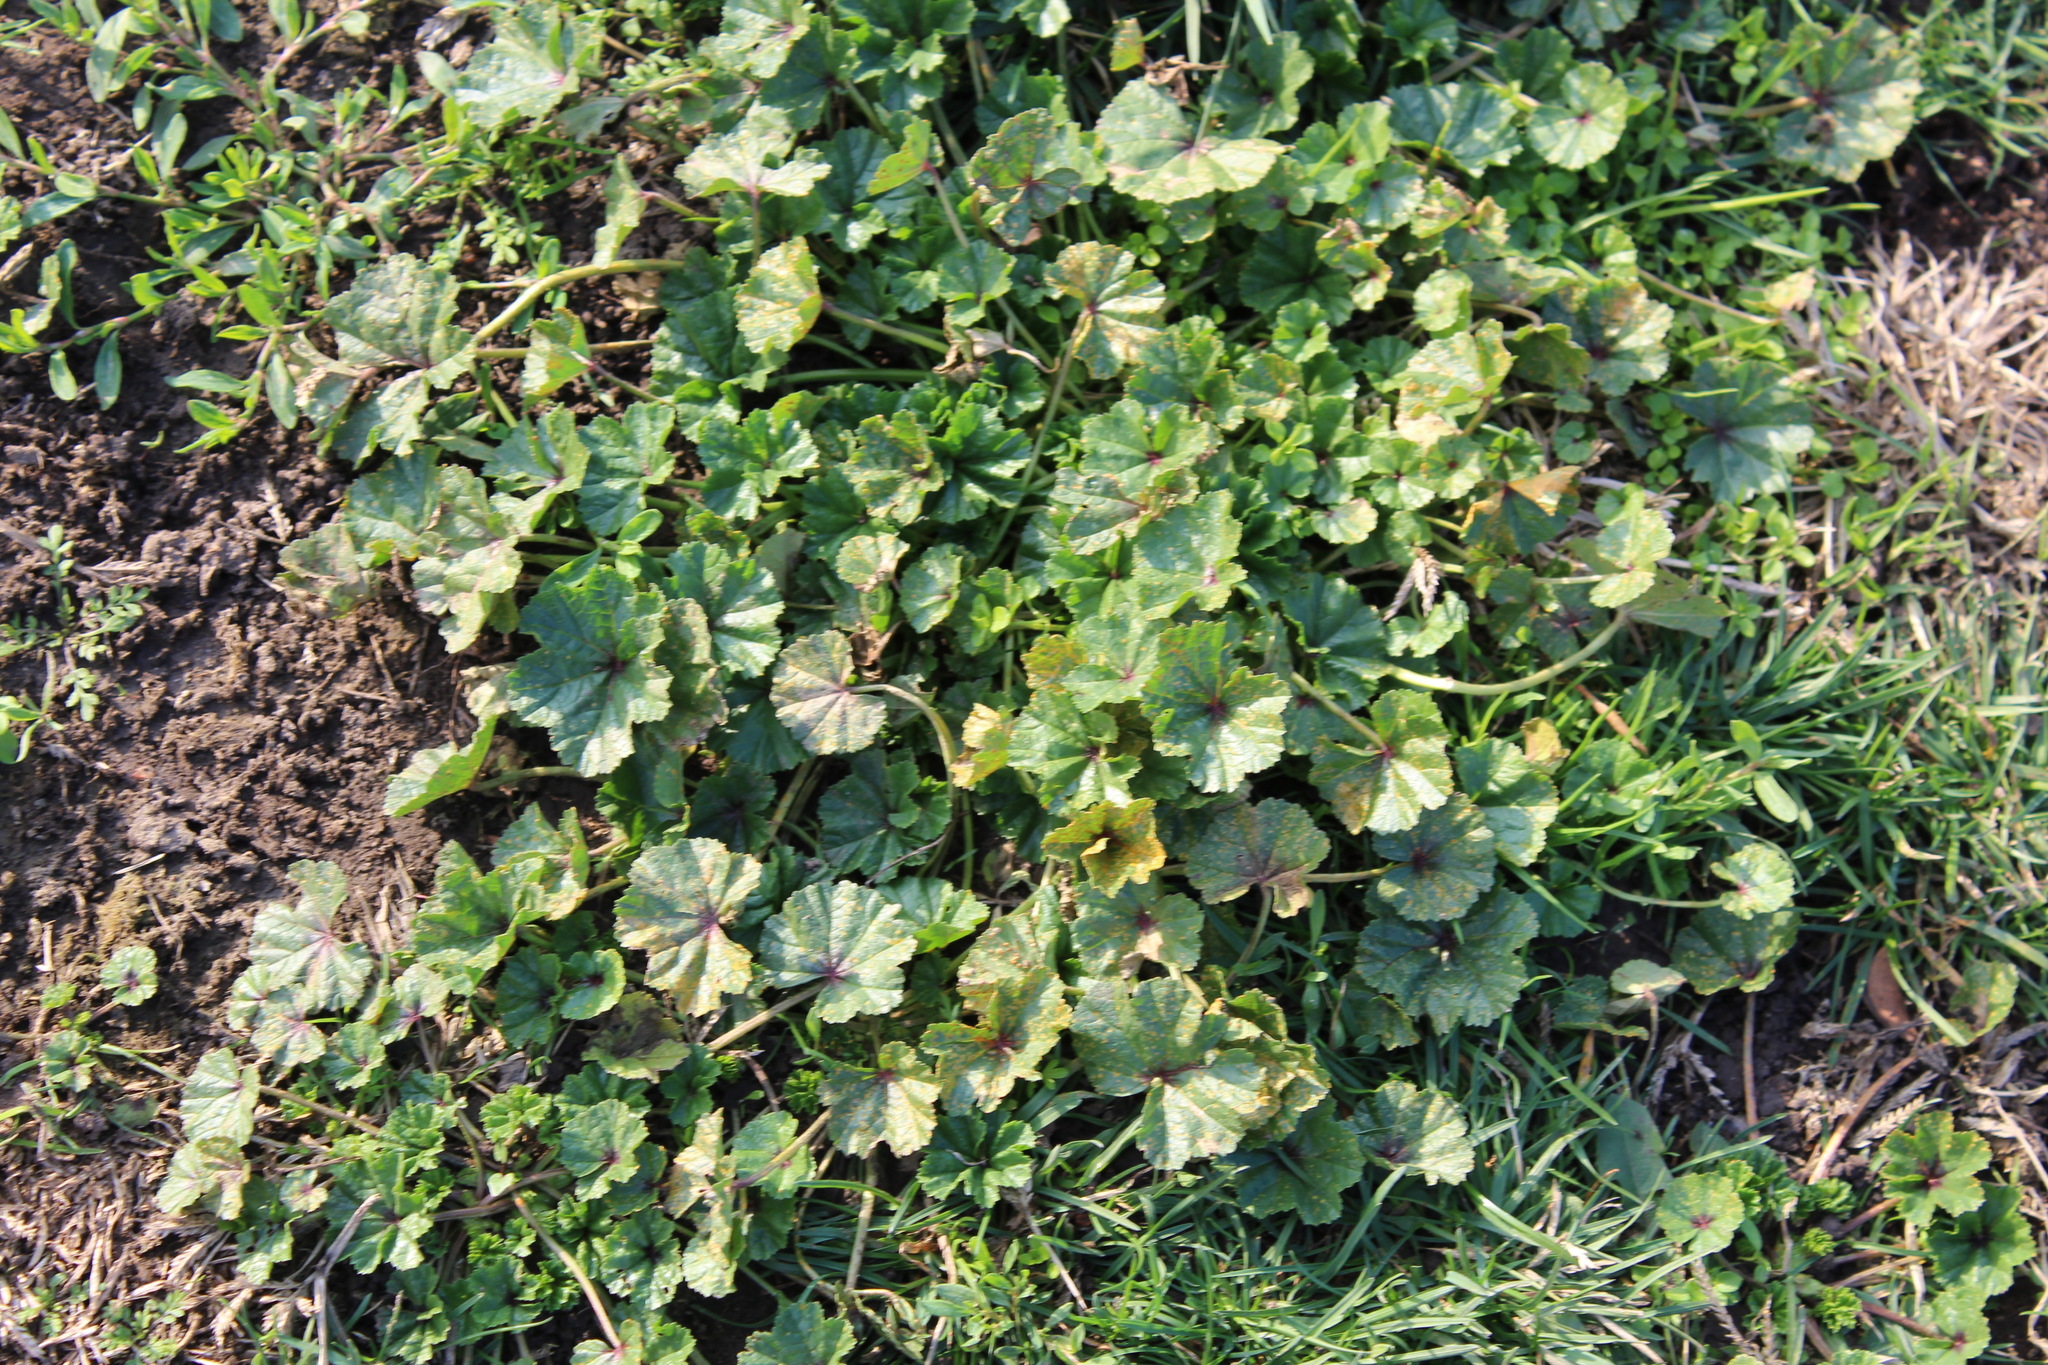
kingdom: Plantae
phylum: Tracheophyta
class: Magnoliopsida
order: Malvales
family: Malvaceae
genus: Malva
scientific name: Malva
